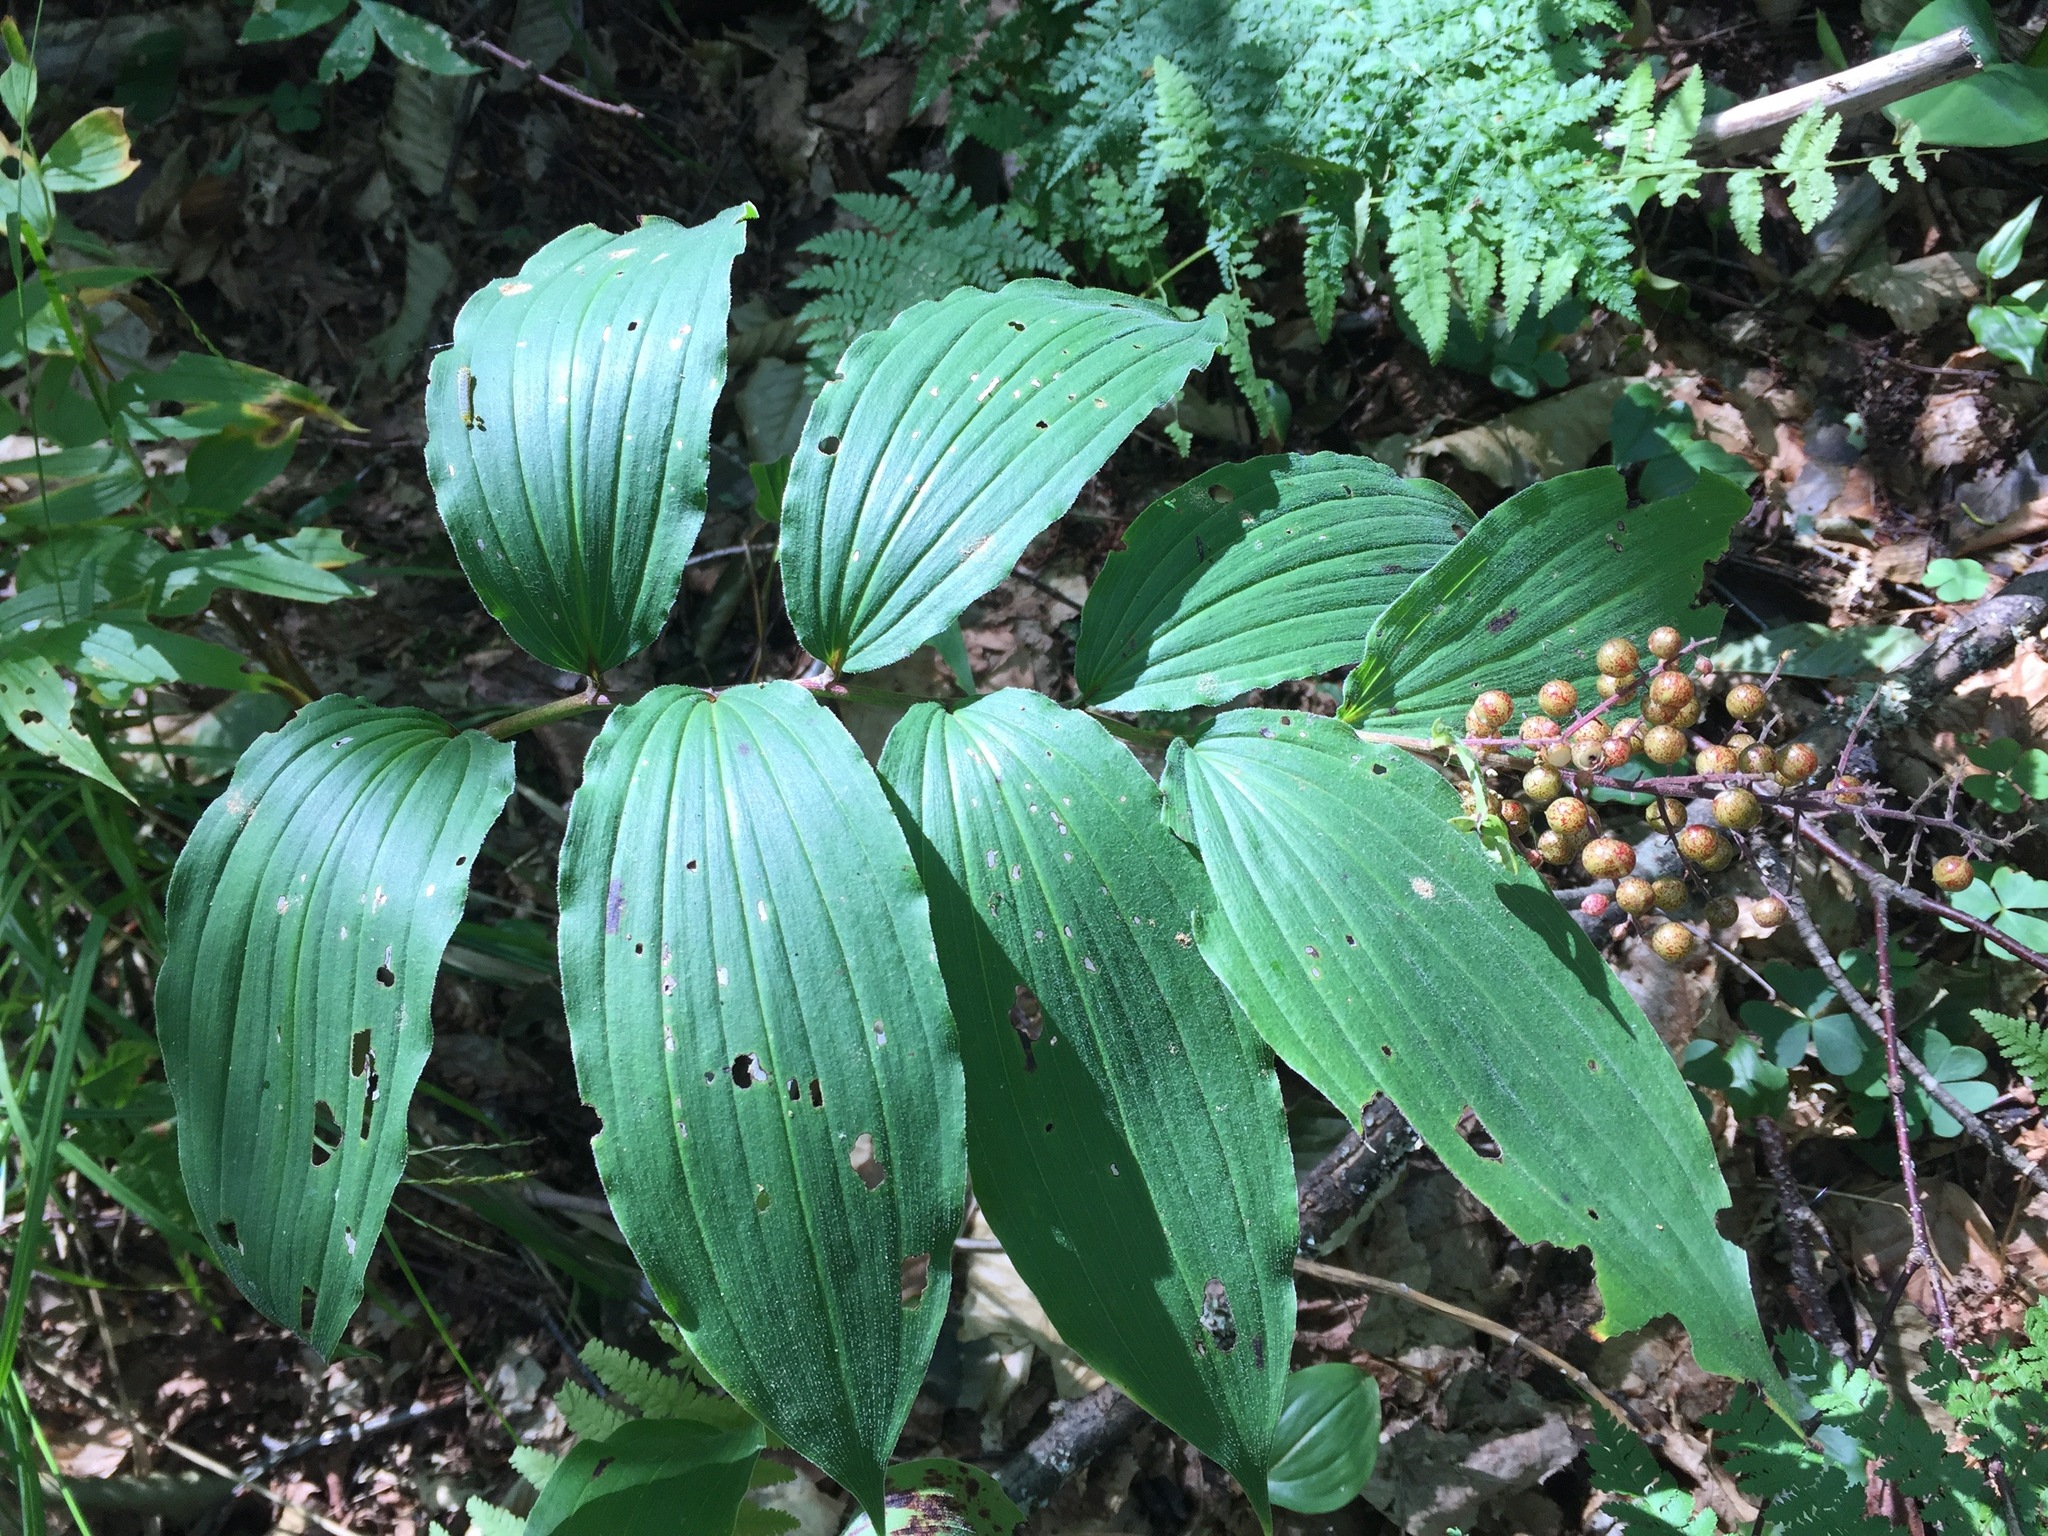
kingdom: Plantae
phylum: Tracheophyta
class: Liliopsida
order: Asparagales
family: Asparagaceae
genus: Maianthemum
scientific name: Maianthemum racemosum
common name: False spikenard
